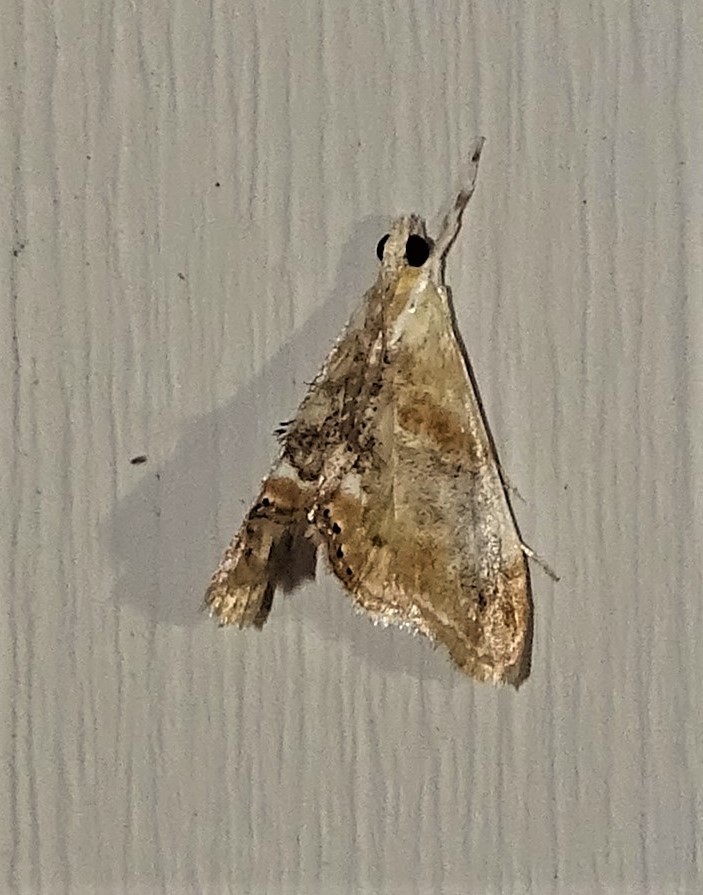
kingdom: Animalia
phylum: Arthropoda
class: Insecta
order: Lepidoptera
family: Crambidae
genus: Dicymolomia
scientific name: Dicymolomia julianalis
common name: Julia's dicymolomia moth
